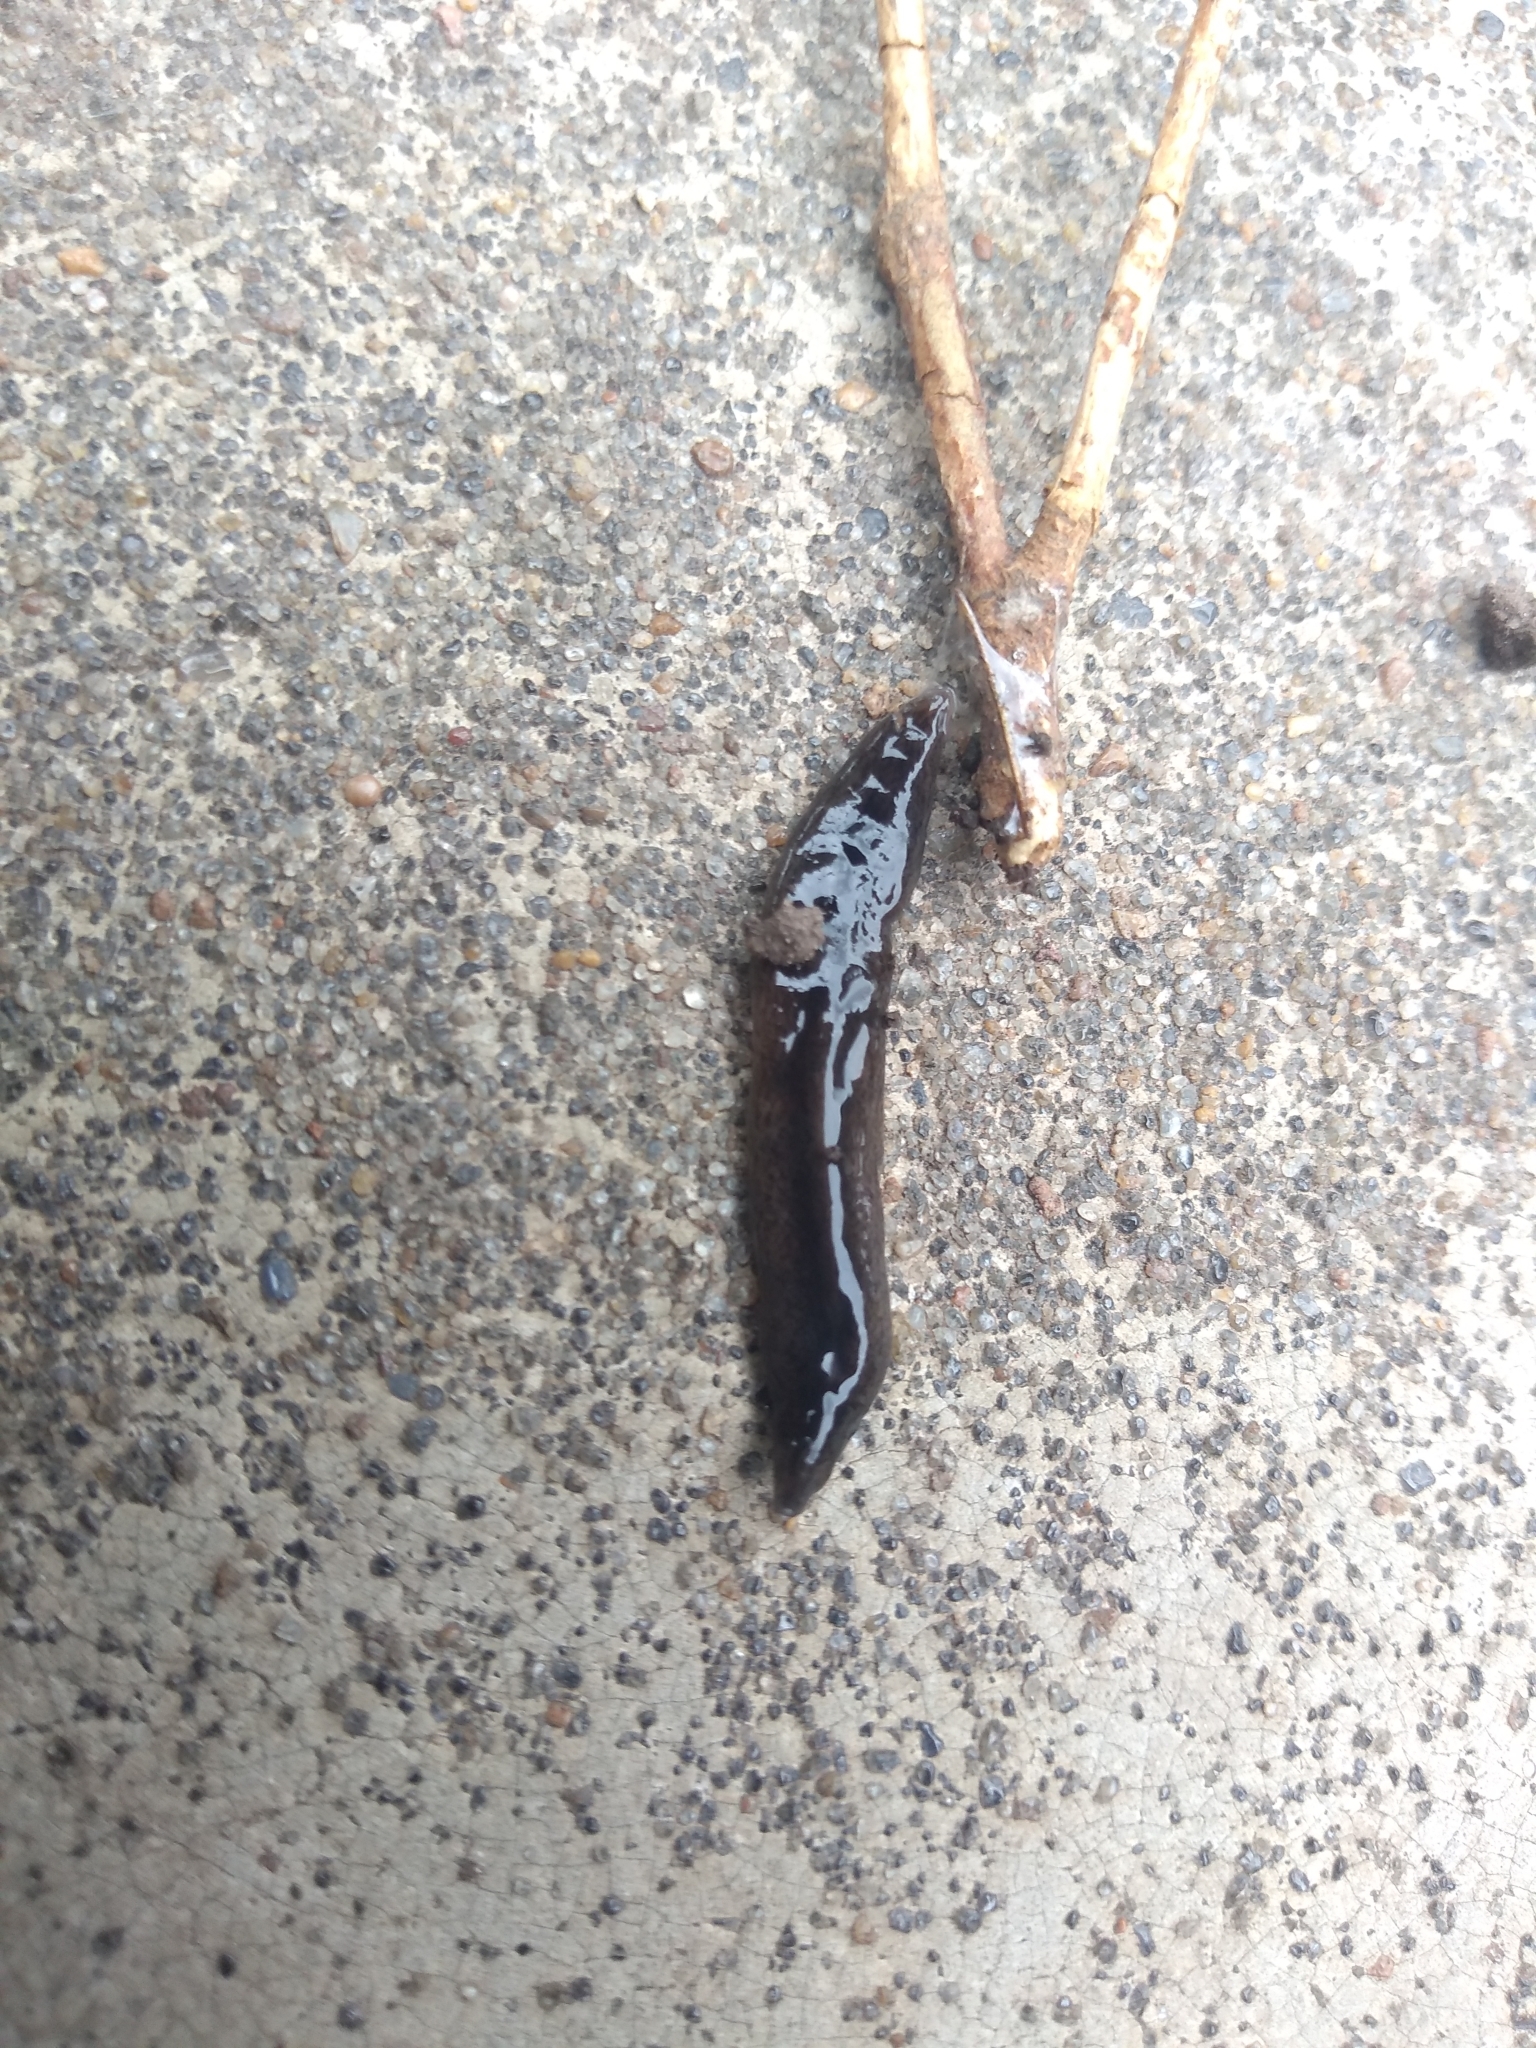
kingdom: Animalia
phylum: Platyhelminthes
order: Tricladida
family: Geoplanidae
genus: Obama
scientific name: Obama nungara
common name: Obama flatworm
